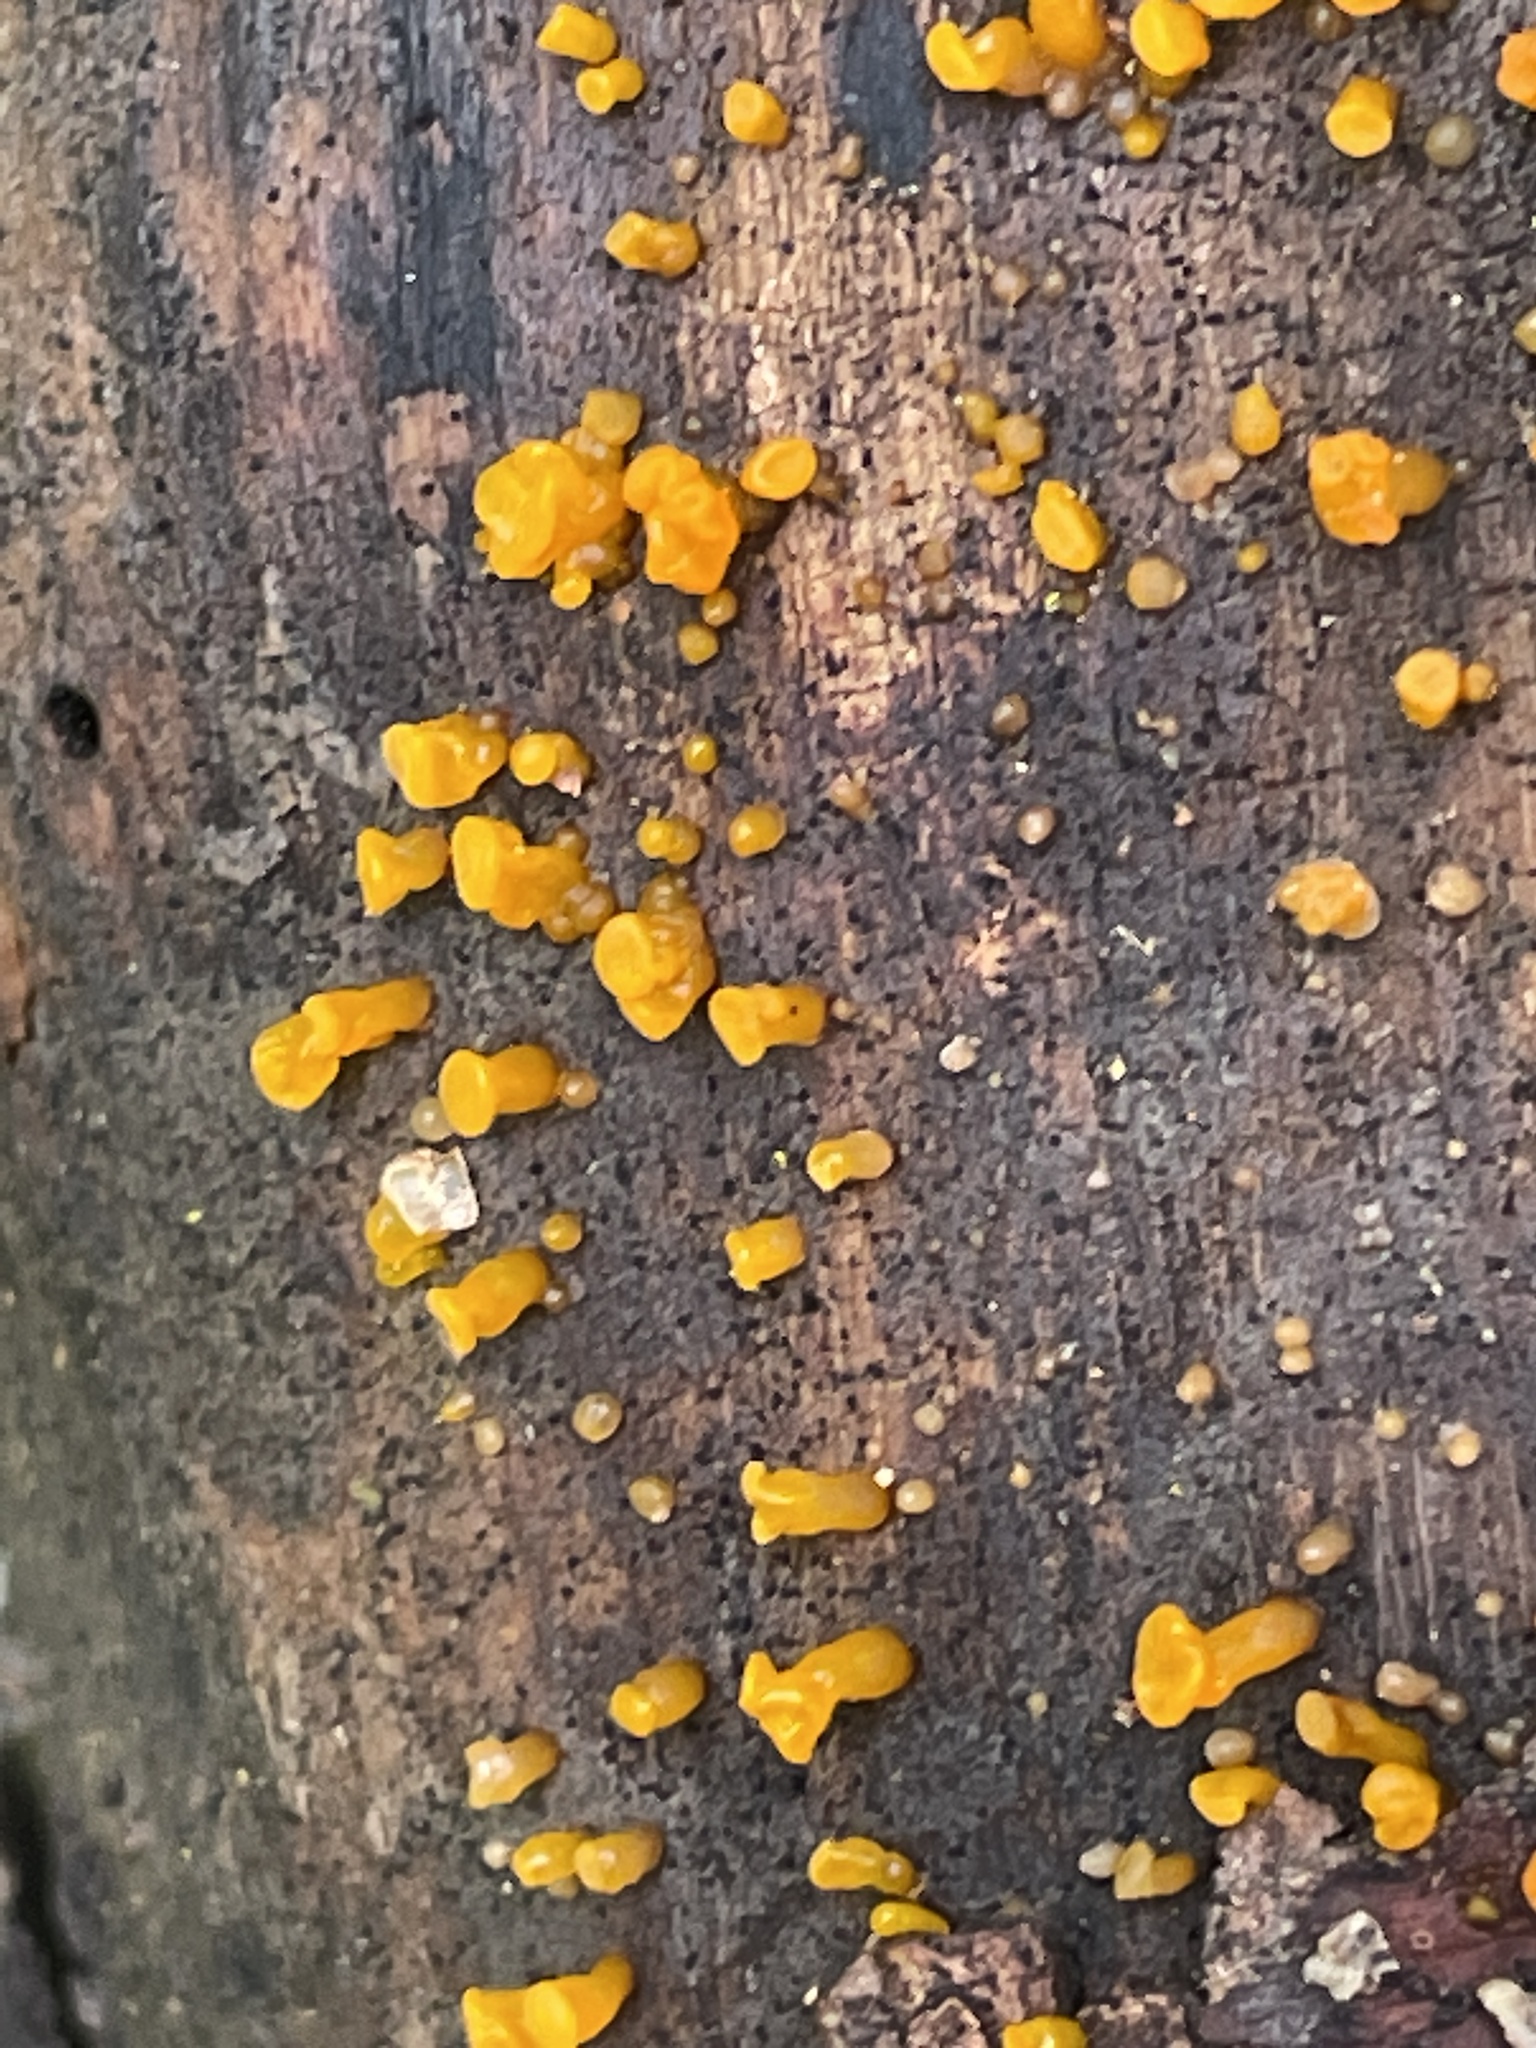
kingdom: Fungi
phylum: Basidiomycota
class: Dacrymycetes
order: Dacrymycetales
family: Dacrymycetaceae
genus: Dacrymyces
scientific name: Dacrymyces capitatus
